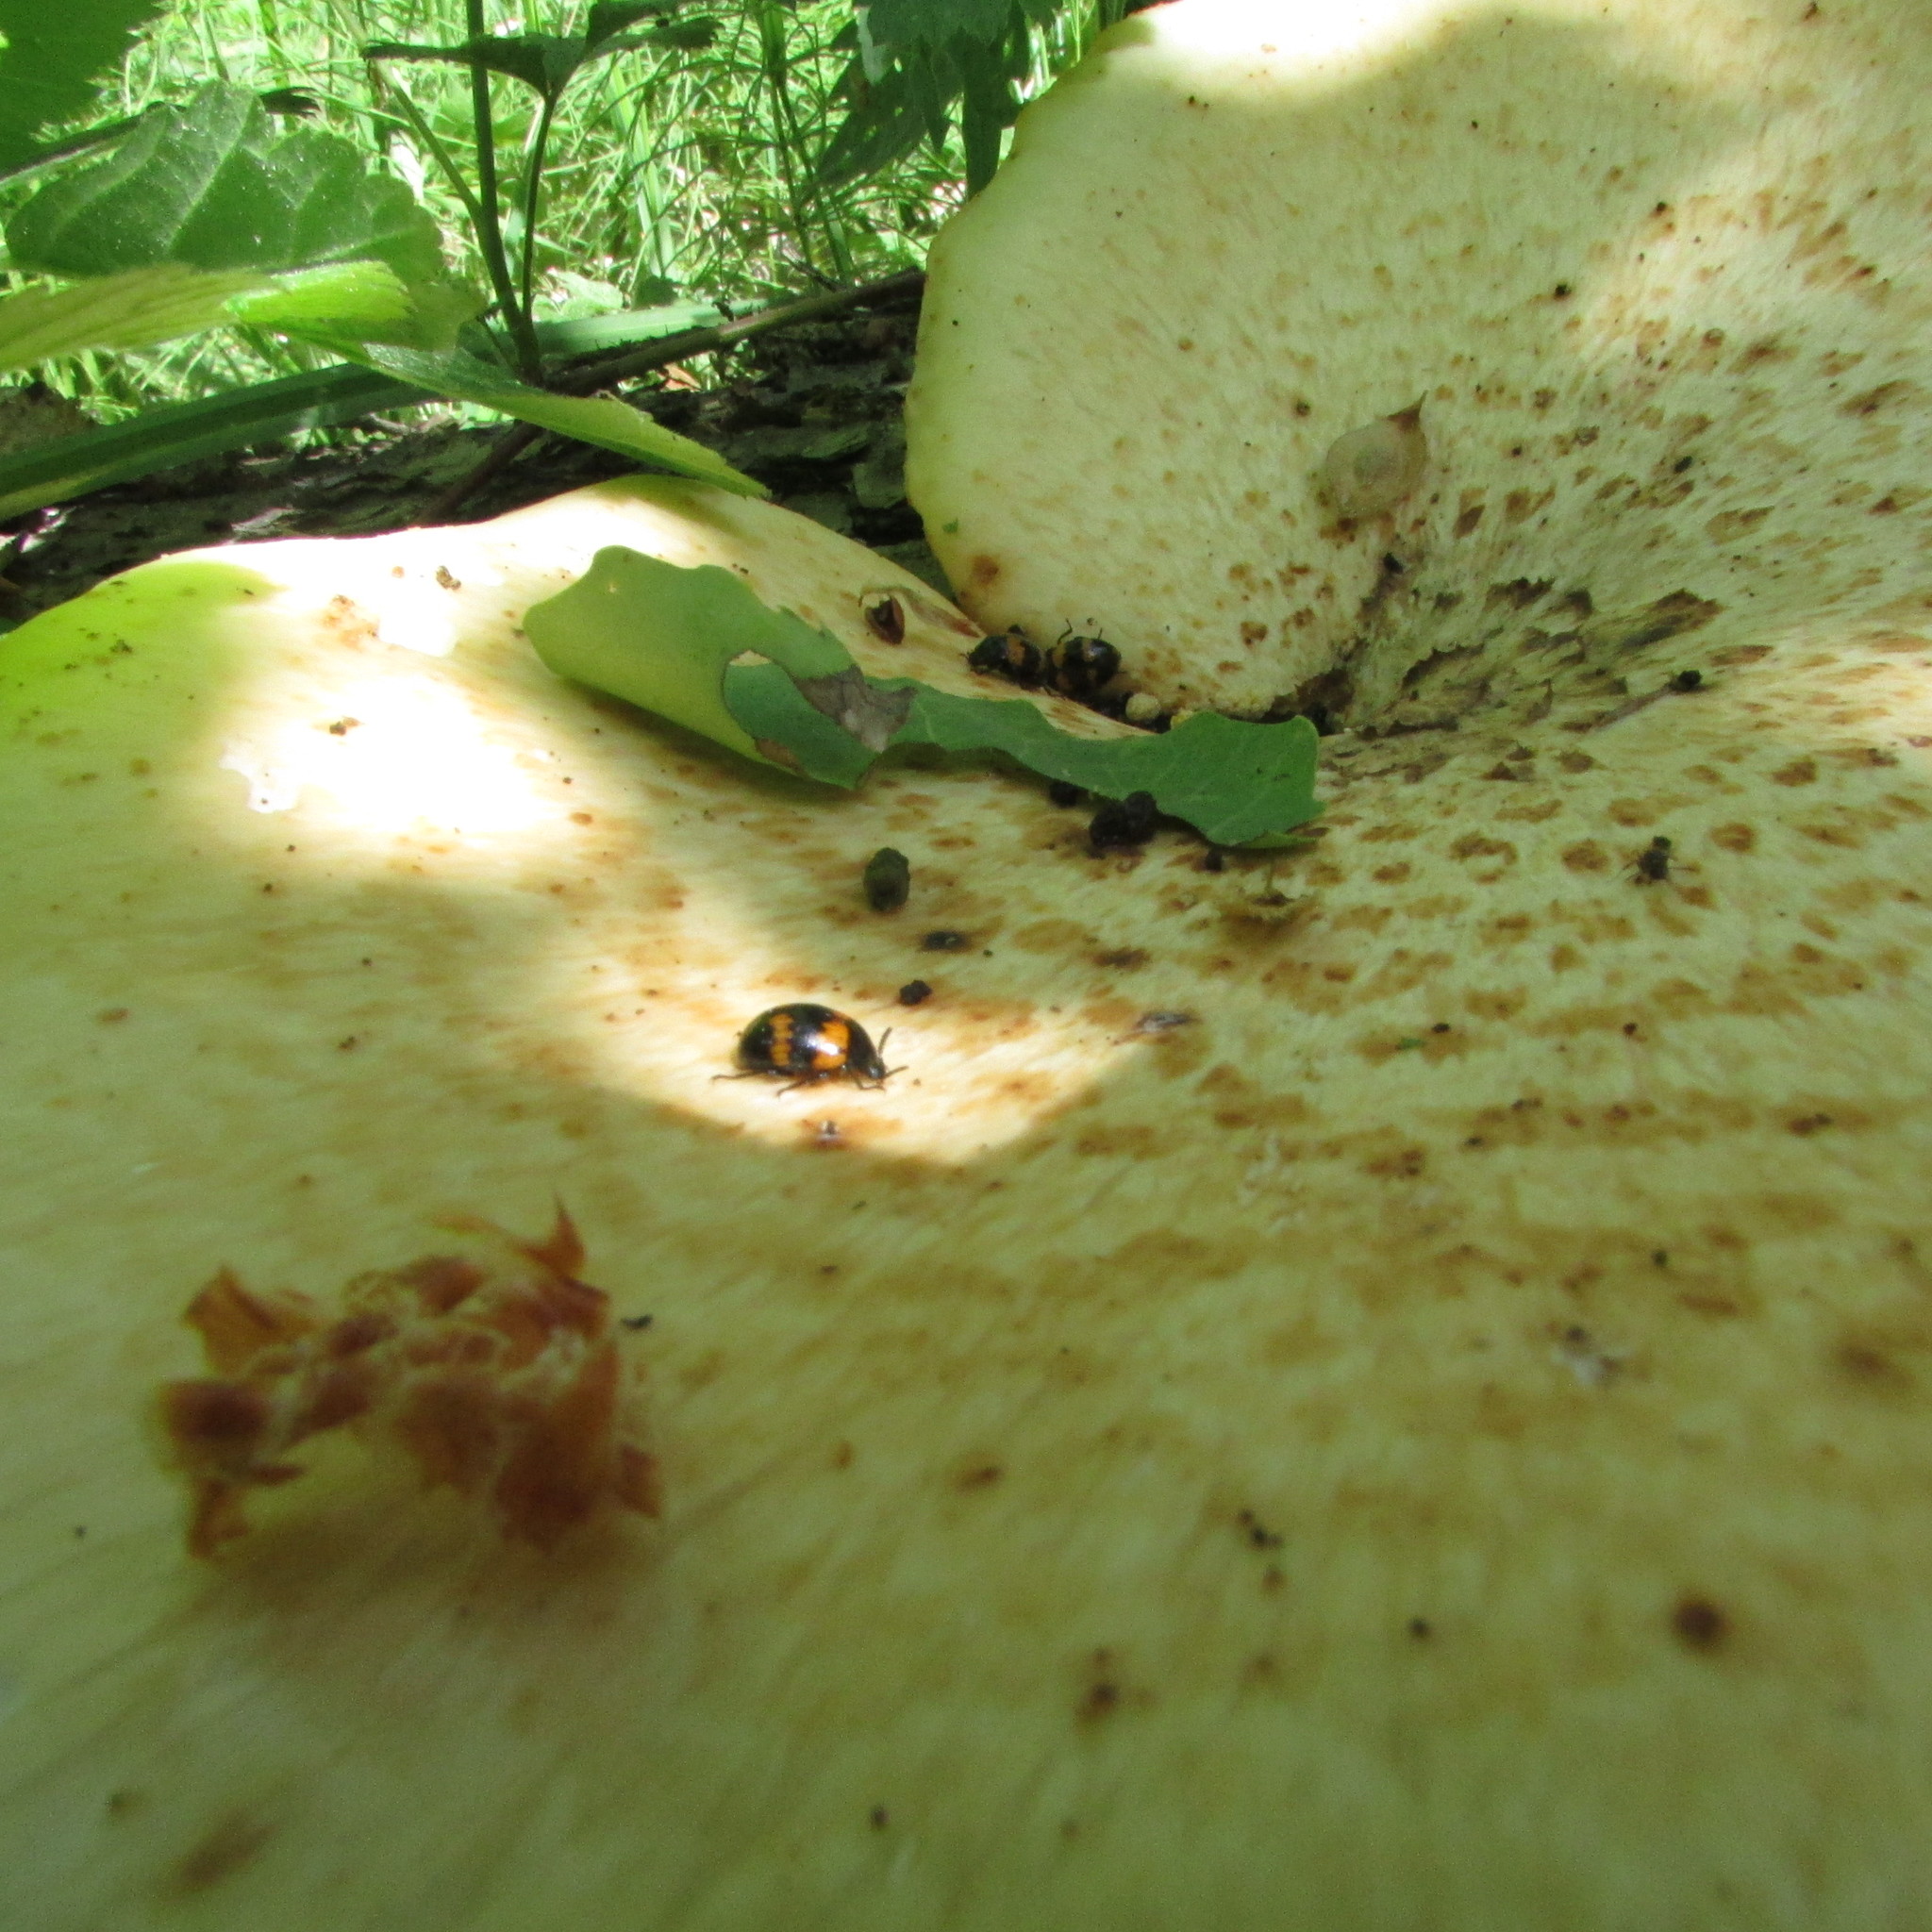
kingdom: Animalia
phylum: Arthropoda
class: Insecta
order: Coleoptera
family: Tenebrionidae
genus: Diaperis
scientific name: Diaperis boleti
